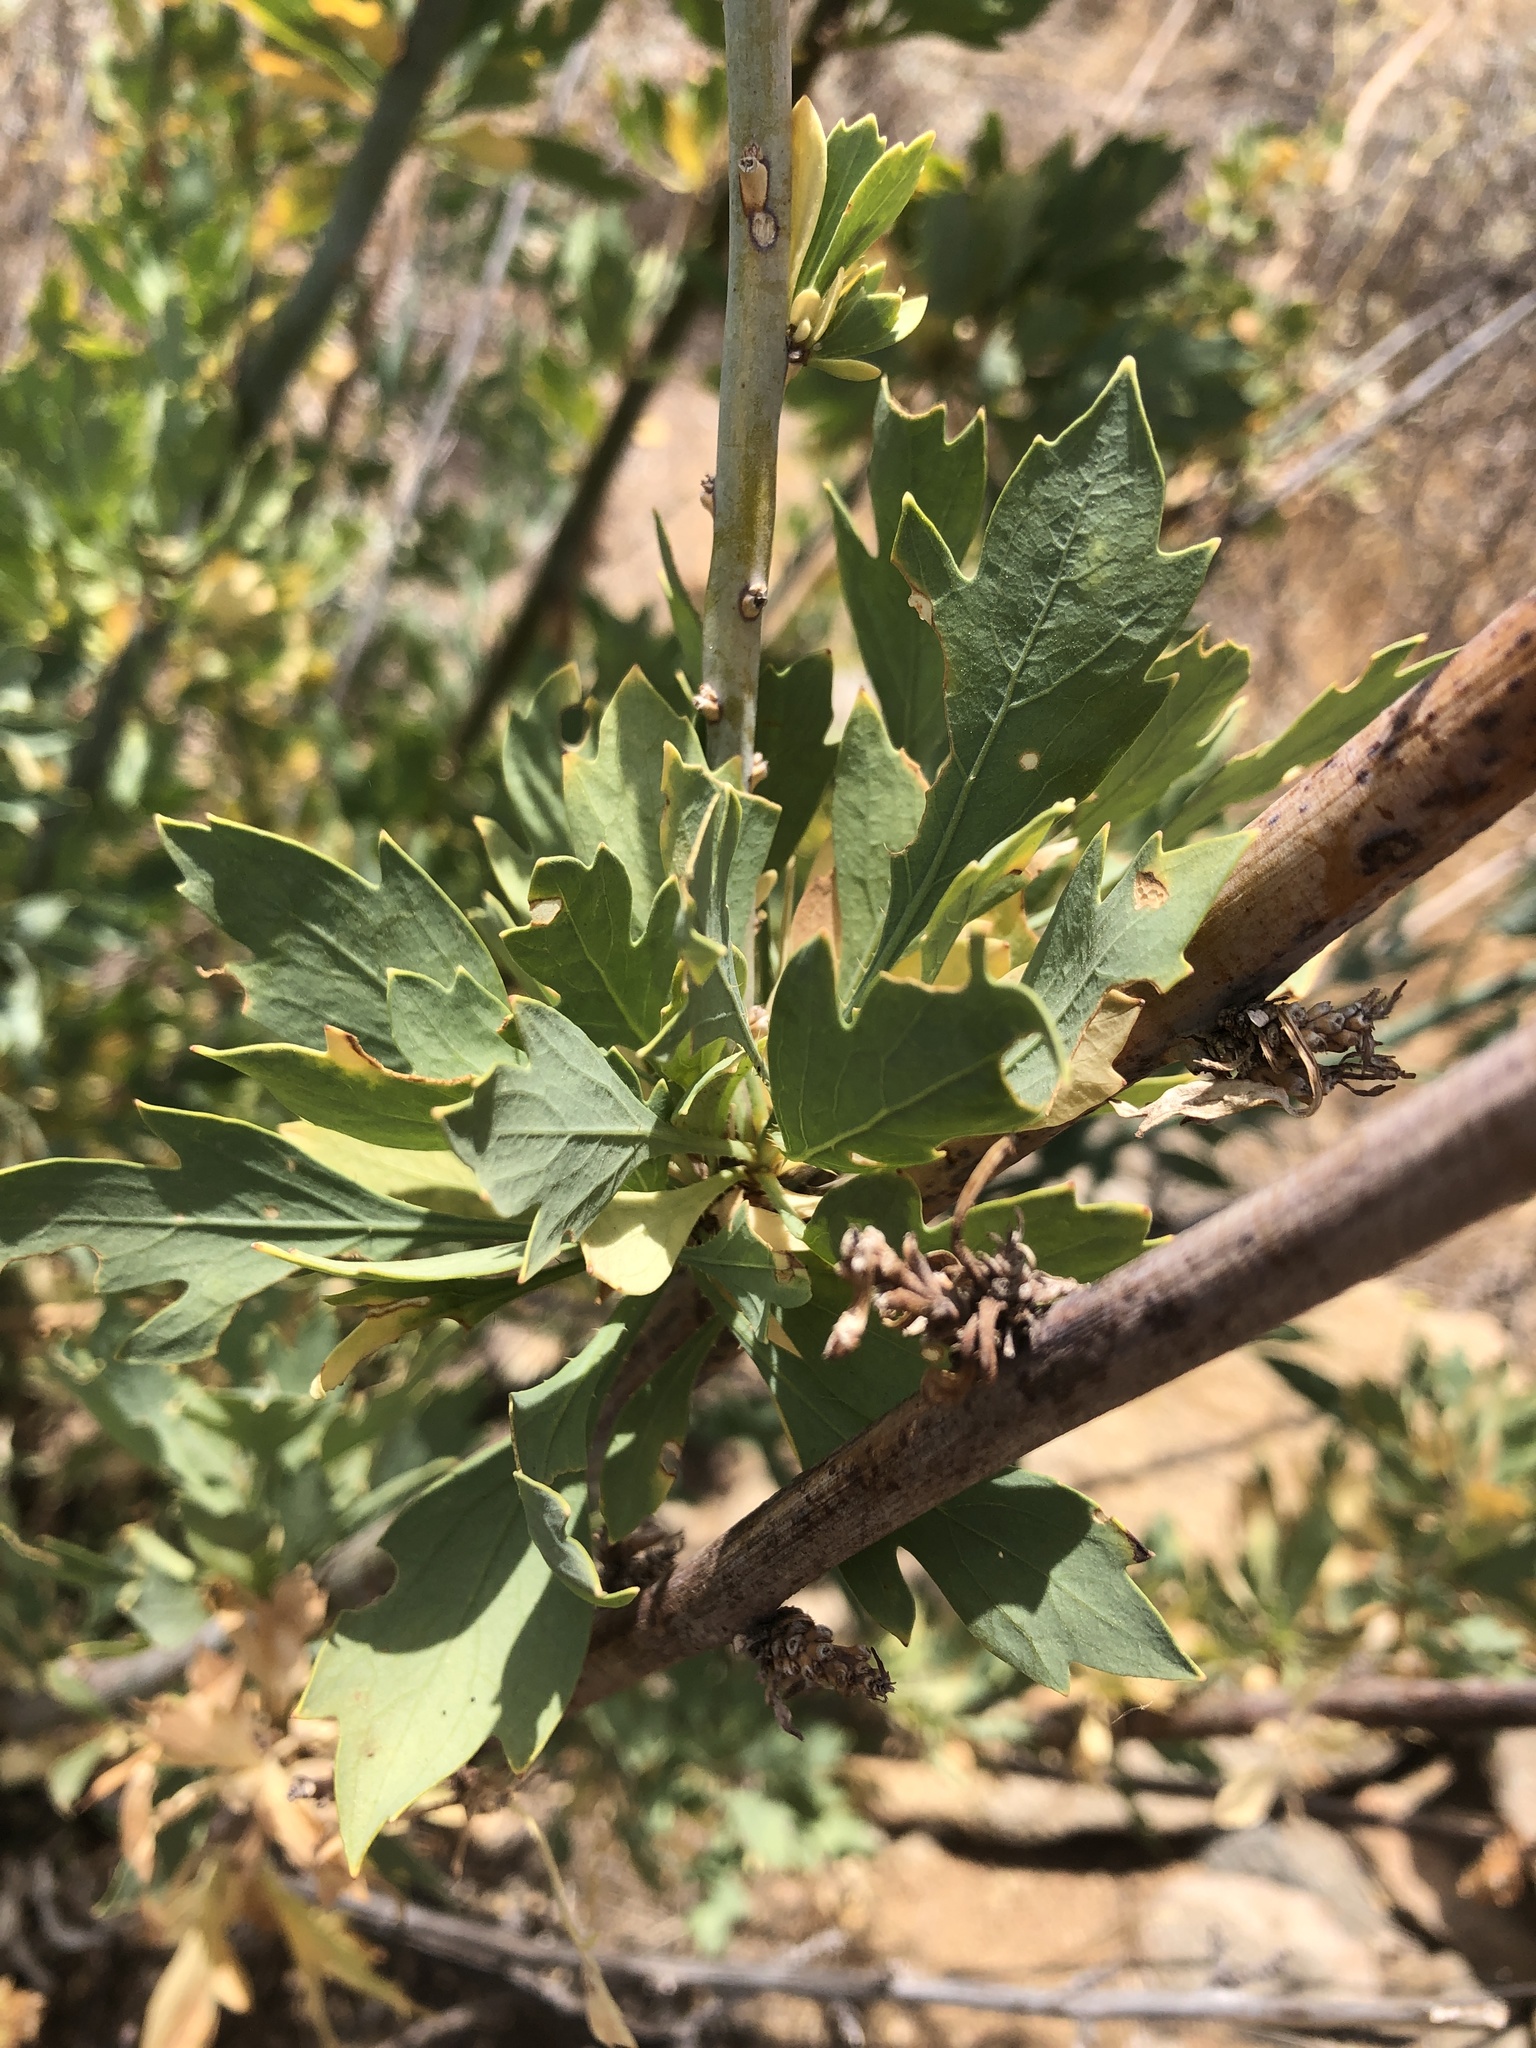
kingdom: Plantae
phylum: Tracheophyta
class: Magnoliopsida
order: Ranunculales
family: Papaveraceae
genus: Romneya
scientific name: Romneya coulteri
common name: California tree-poppy
